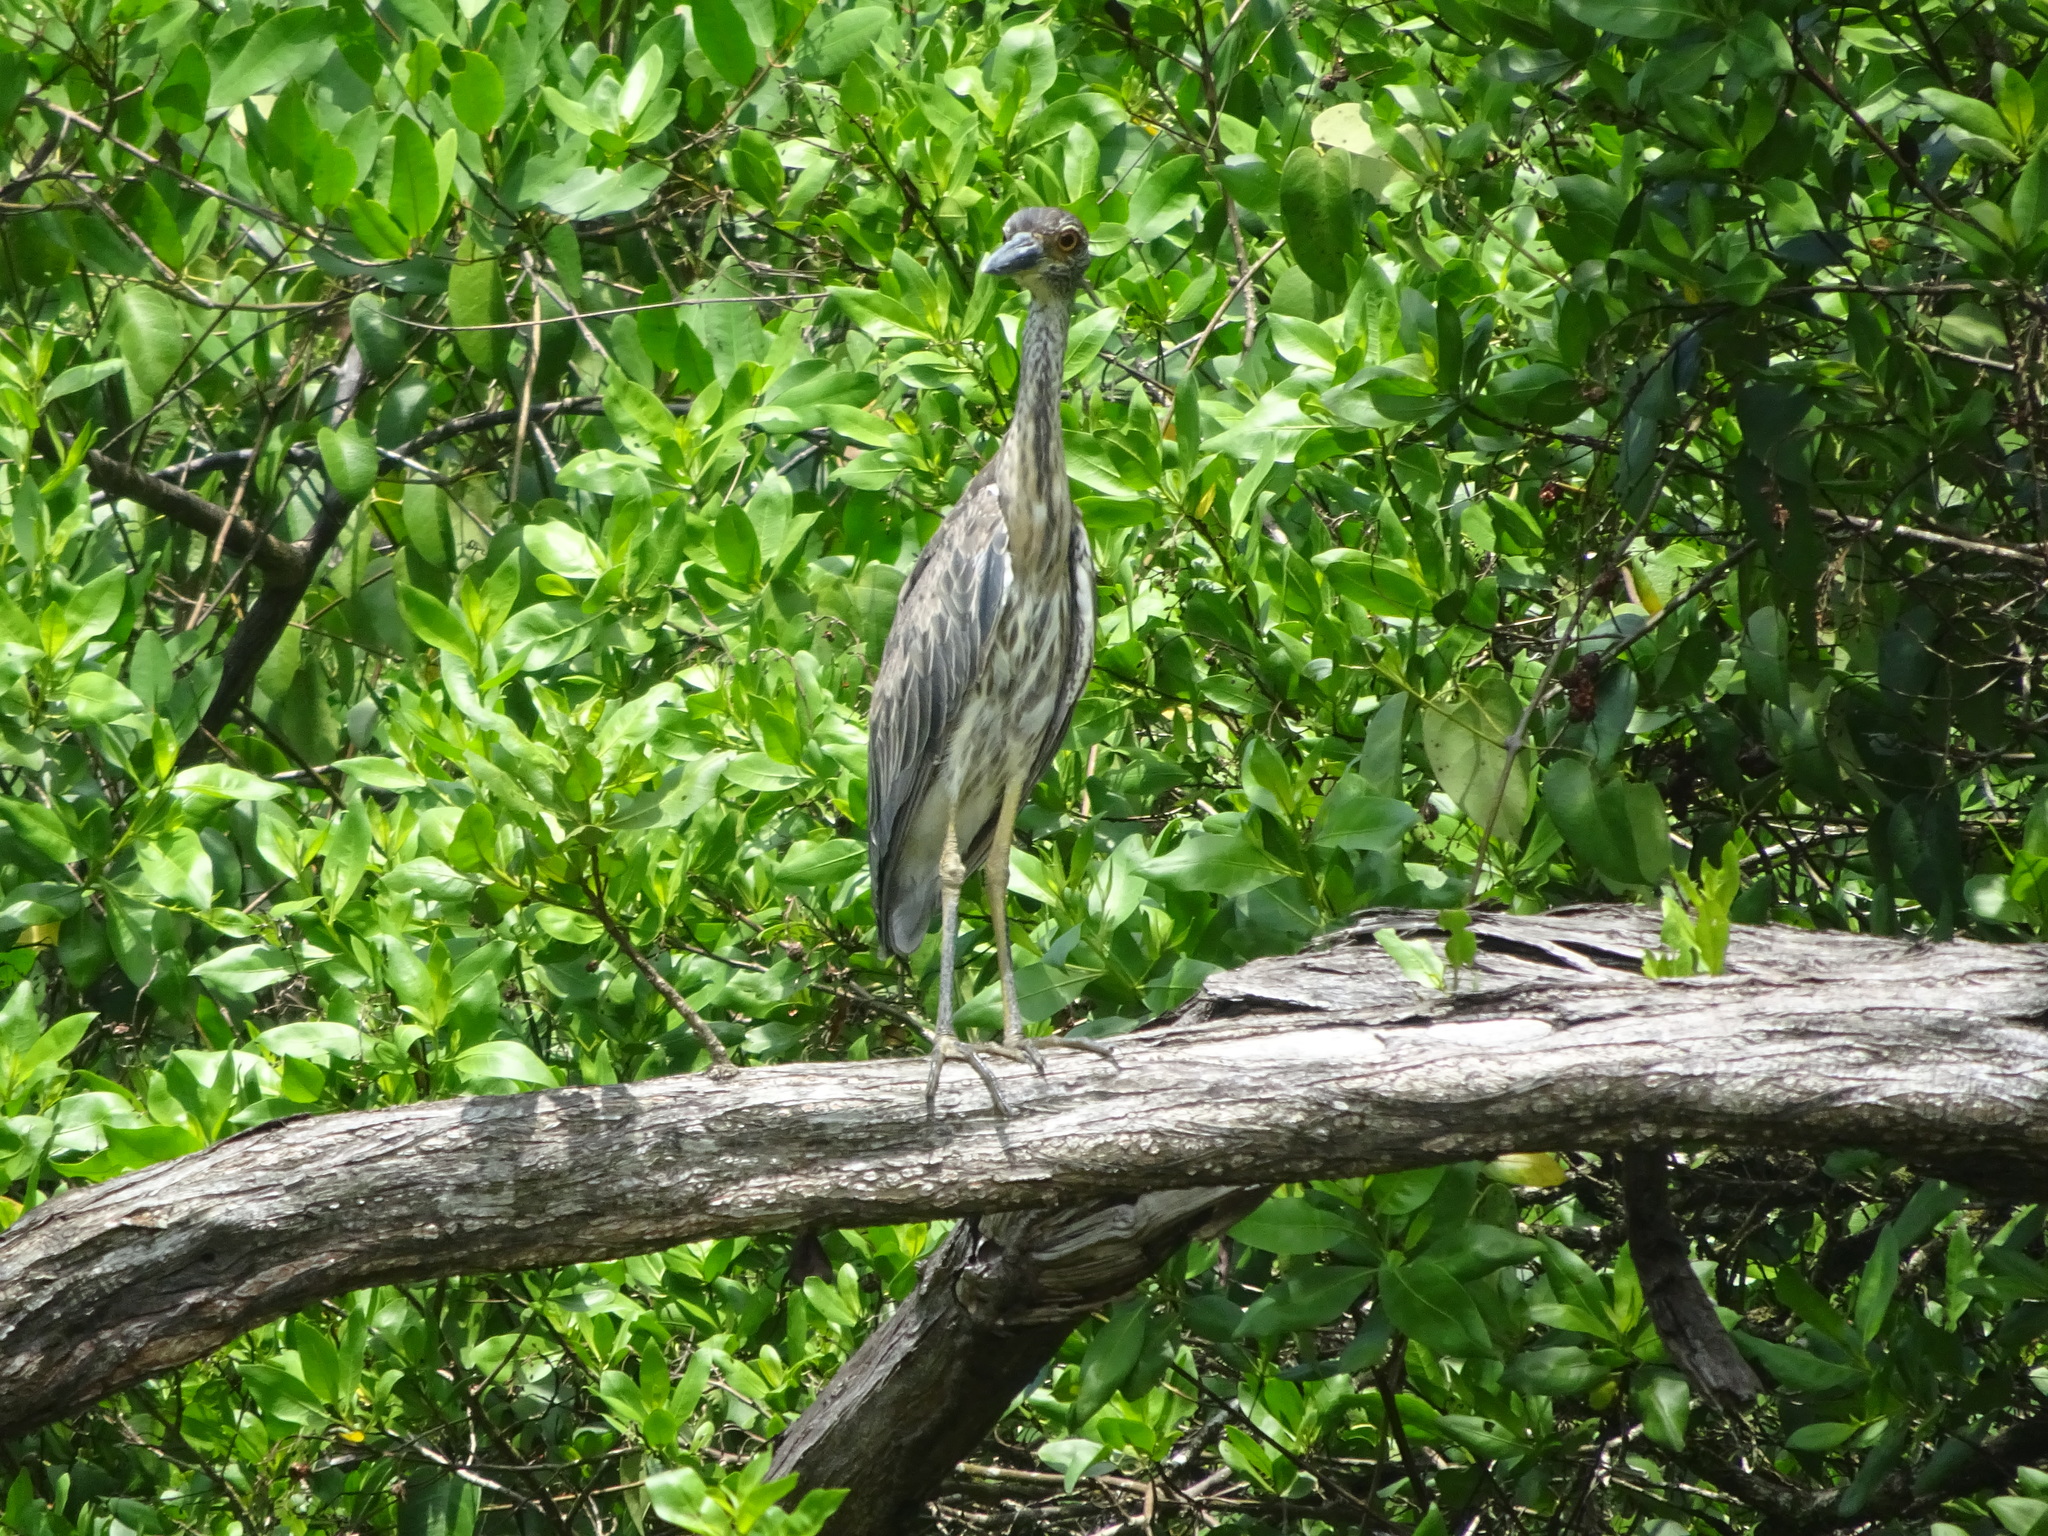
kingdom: Animalia
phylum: Chordata
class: Aves
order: Pelecaniformes
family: Ardeidae
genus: Nyctanassa
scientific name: Nyctanassa violacea
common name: Yellow-crowned night heron
